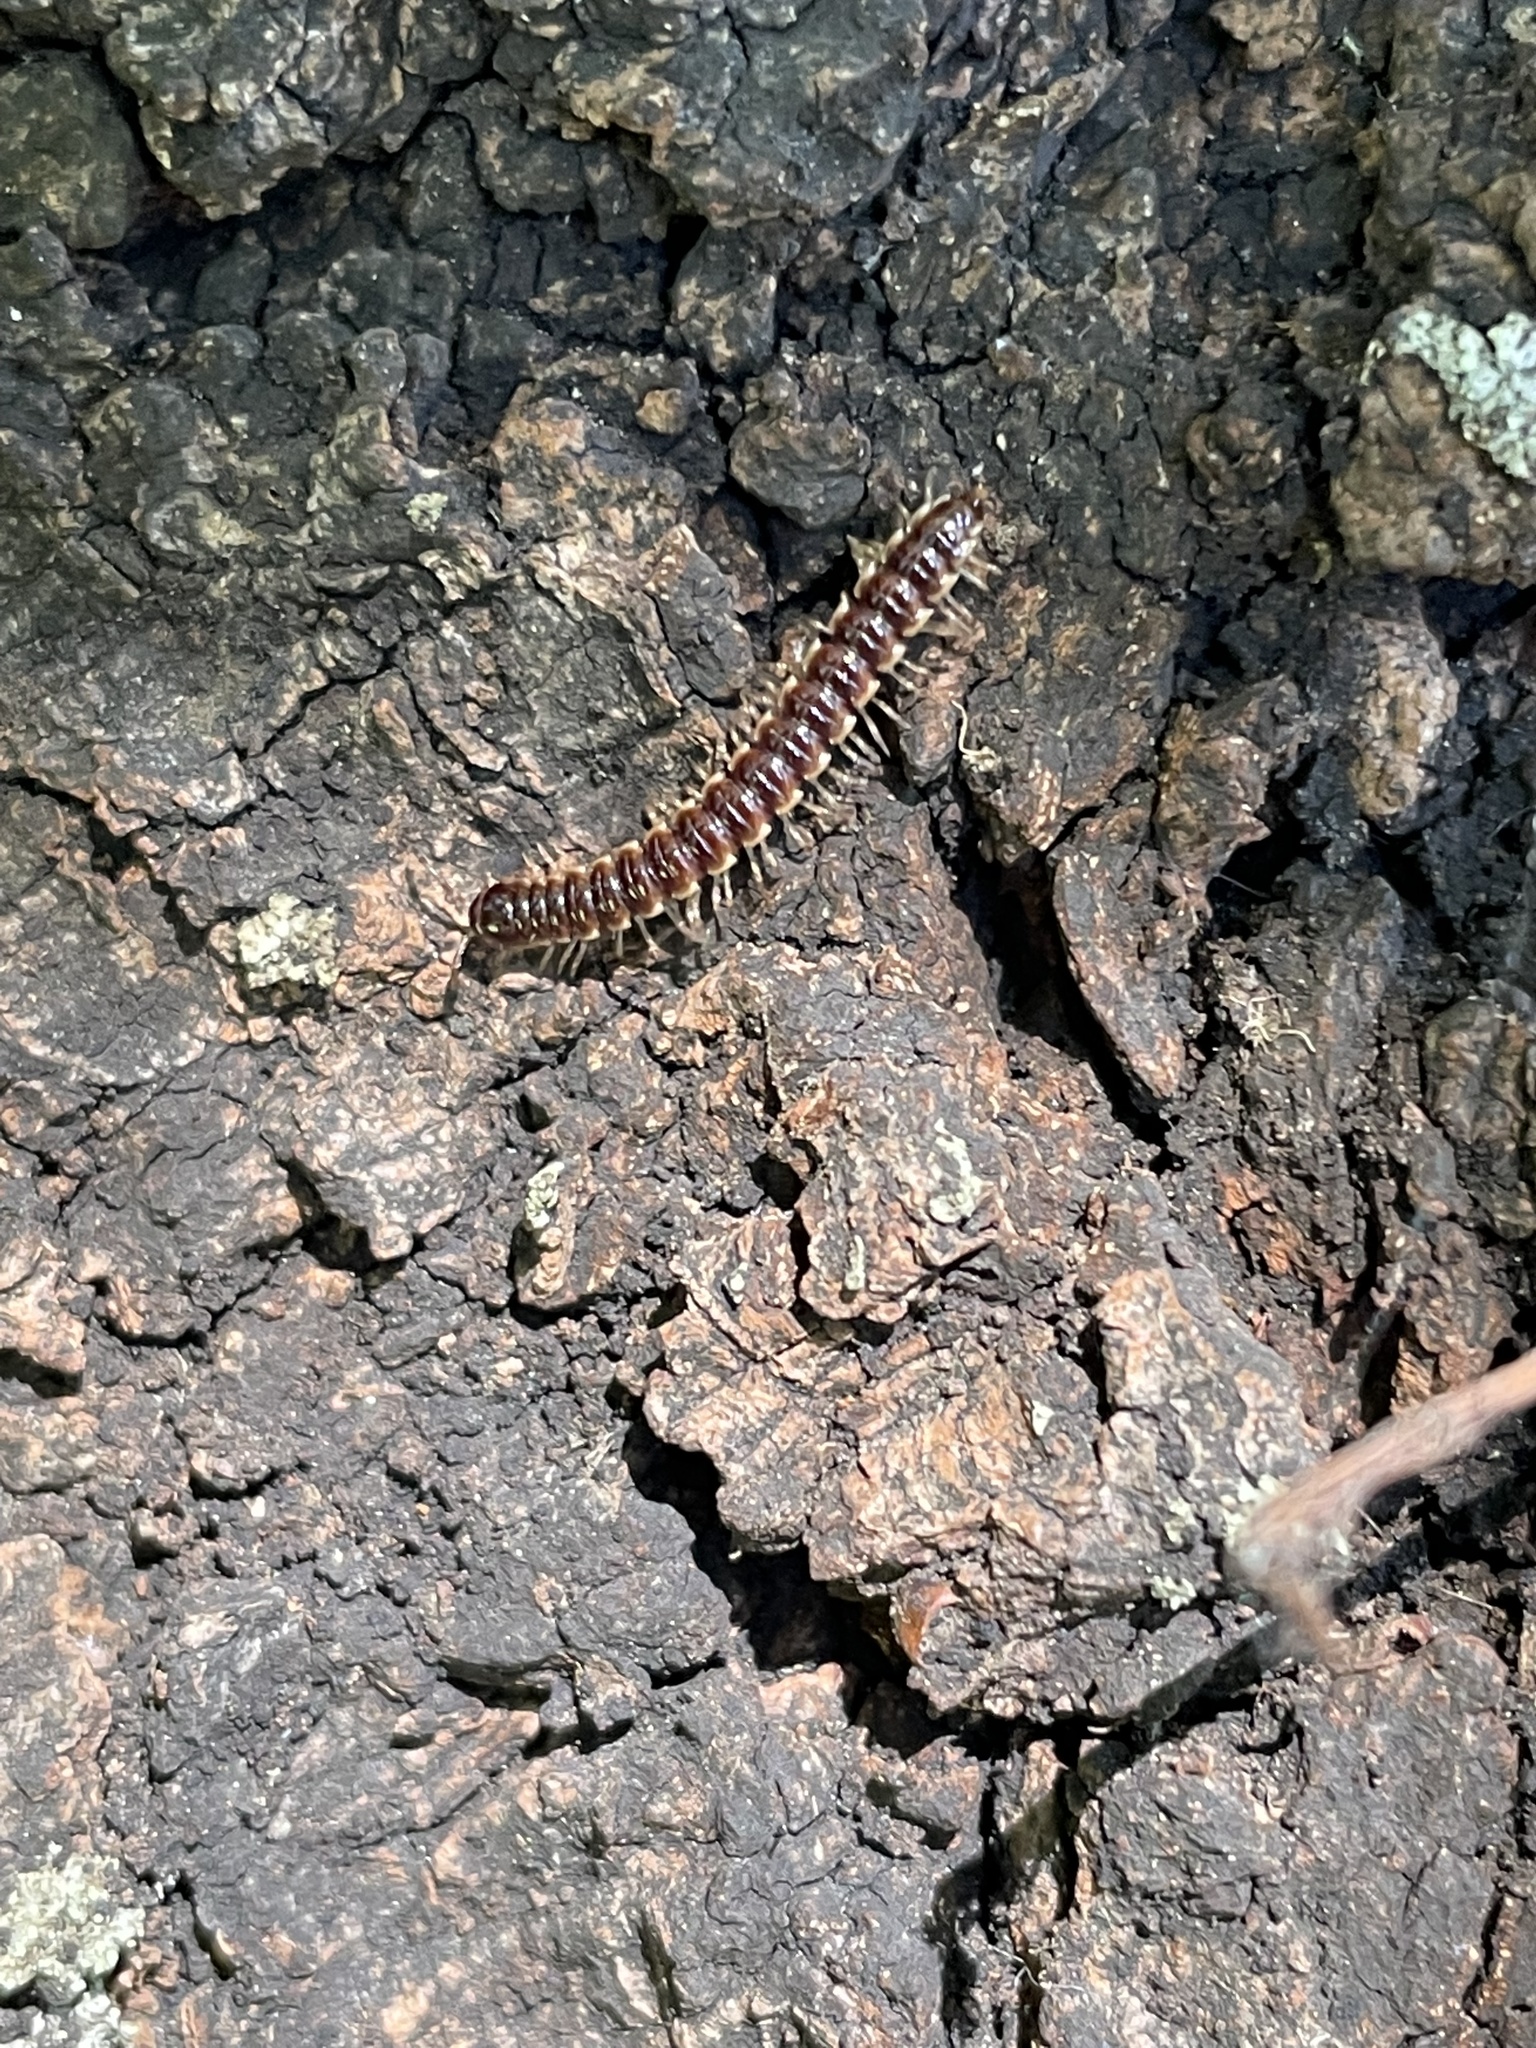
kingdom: Animalia
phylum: Arthropoda
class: Diplopoda
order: Polydesmida
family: Paradoxosomatidae
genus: Oxidus
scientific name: Oxidus gracilis
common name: Greenhouse millipede
